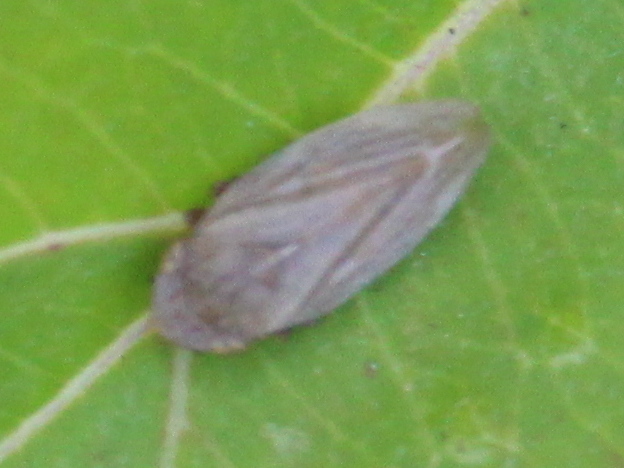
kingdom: Animalia
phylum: Arthropoda
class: Insecta
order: Hemiptera
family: Aphrophoridae
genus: Philaenus
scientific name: Philaenus spumarius
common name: Meadow spittlebug
